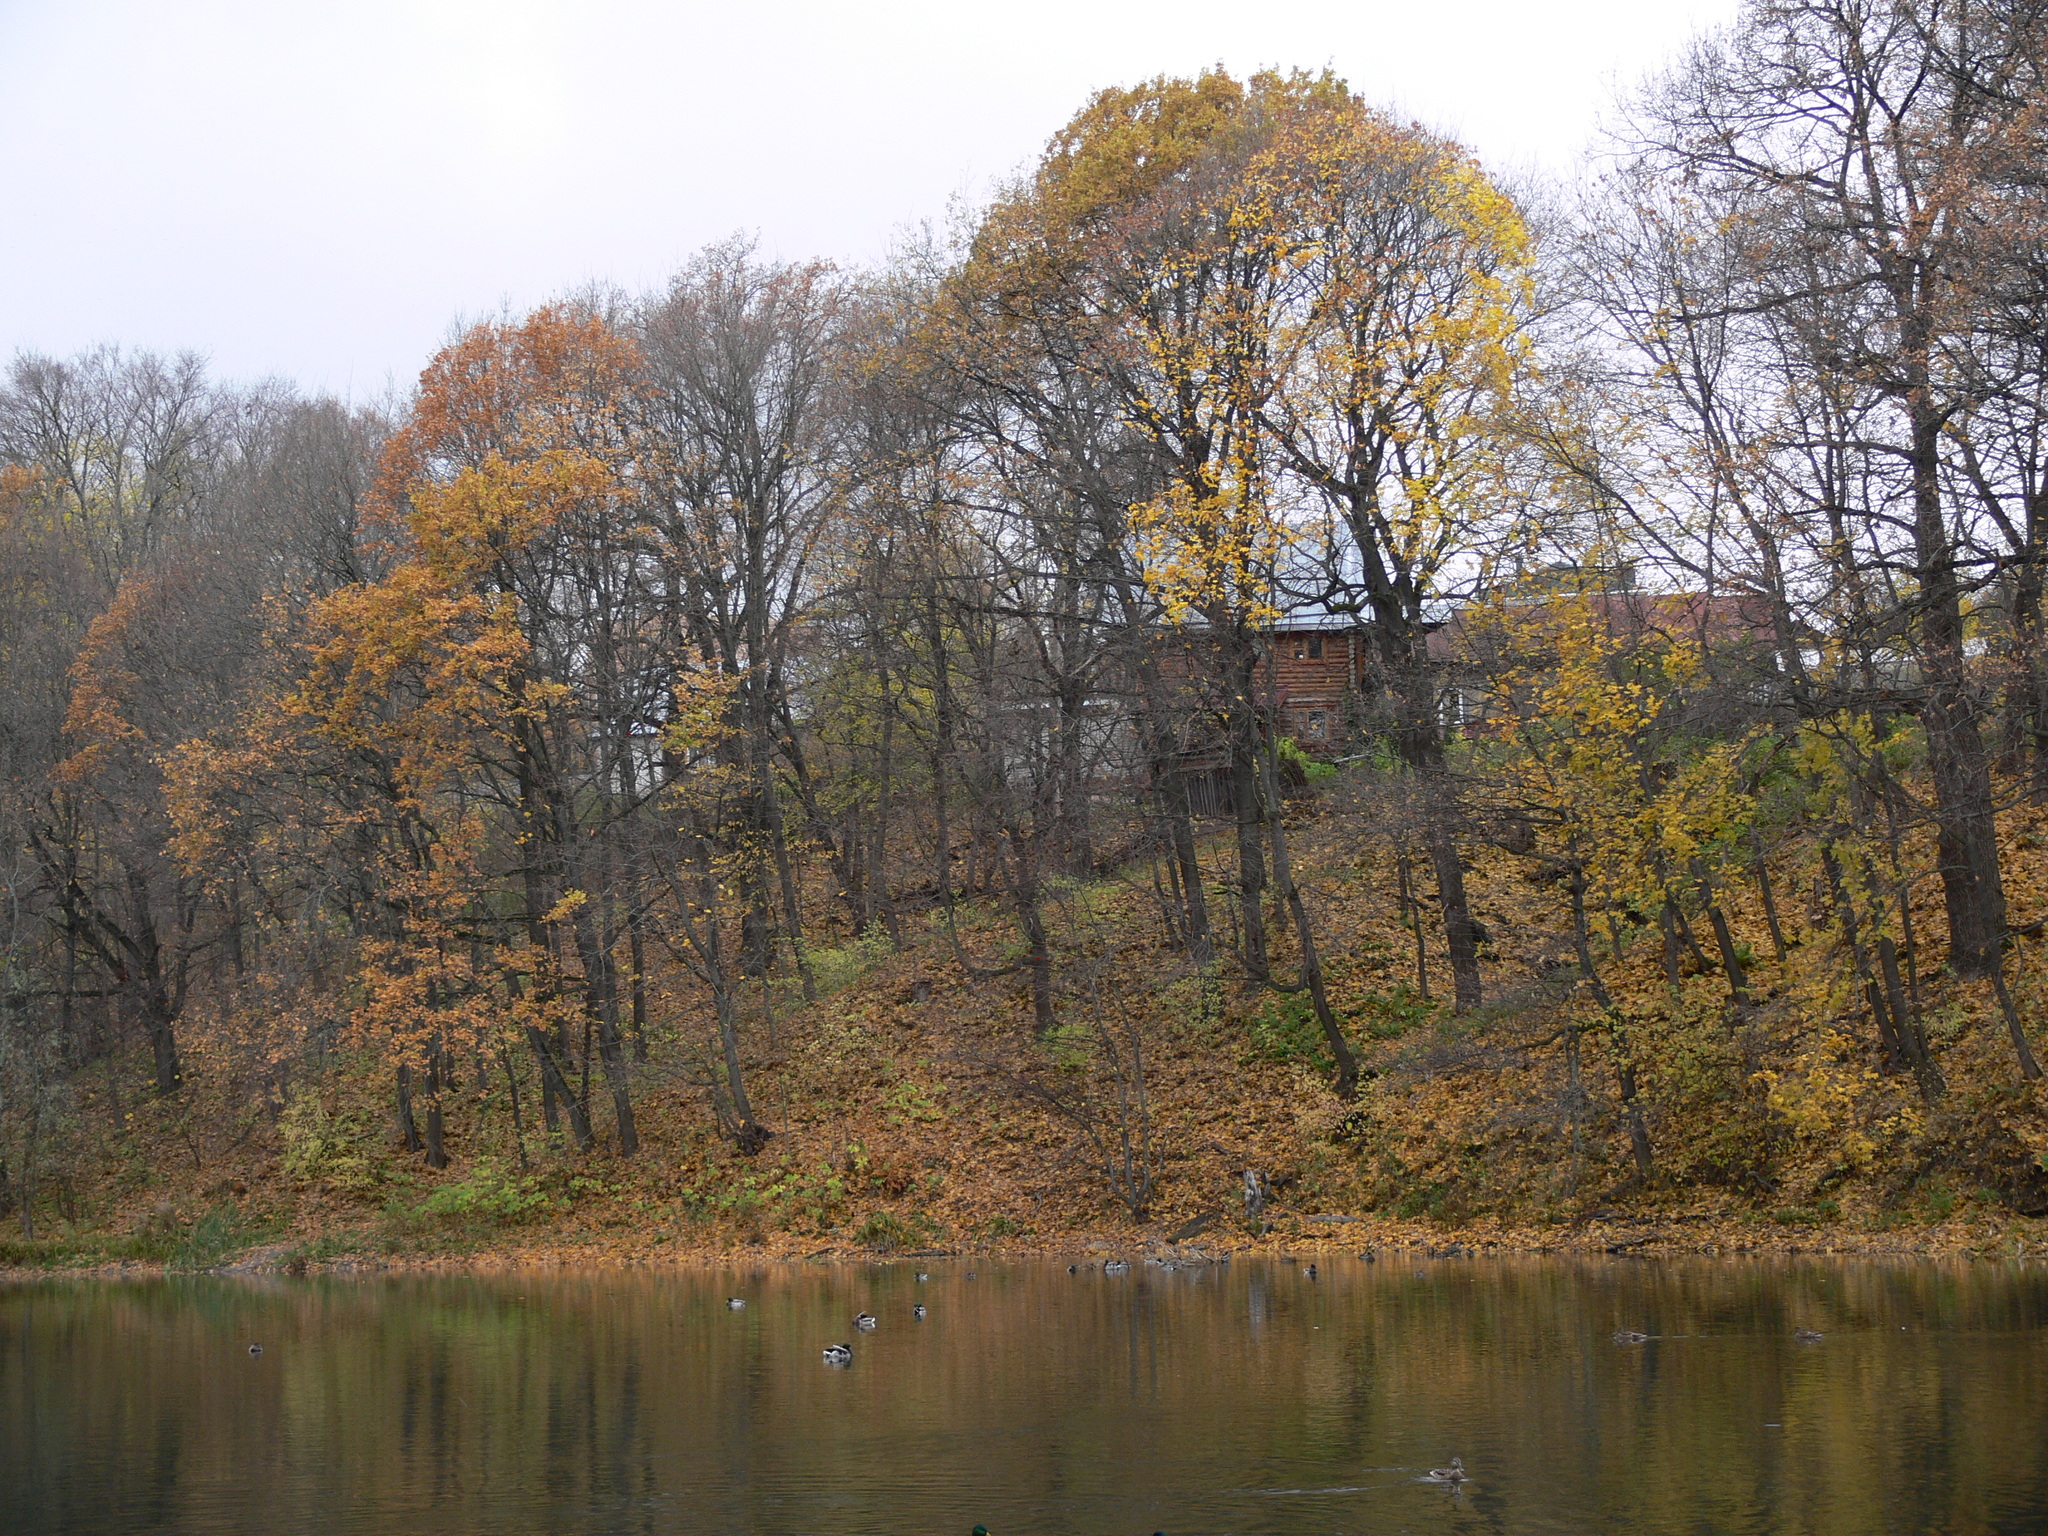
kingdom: Animalia
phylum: Chordata
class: Aves
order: Anseriformes
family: Anatidae
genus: Anas
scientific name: Anas platyrhynchos
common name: Mallard
